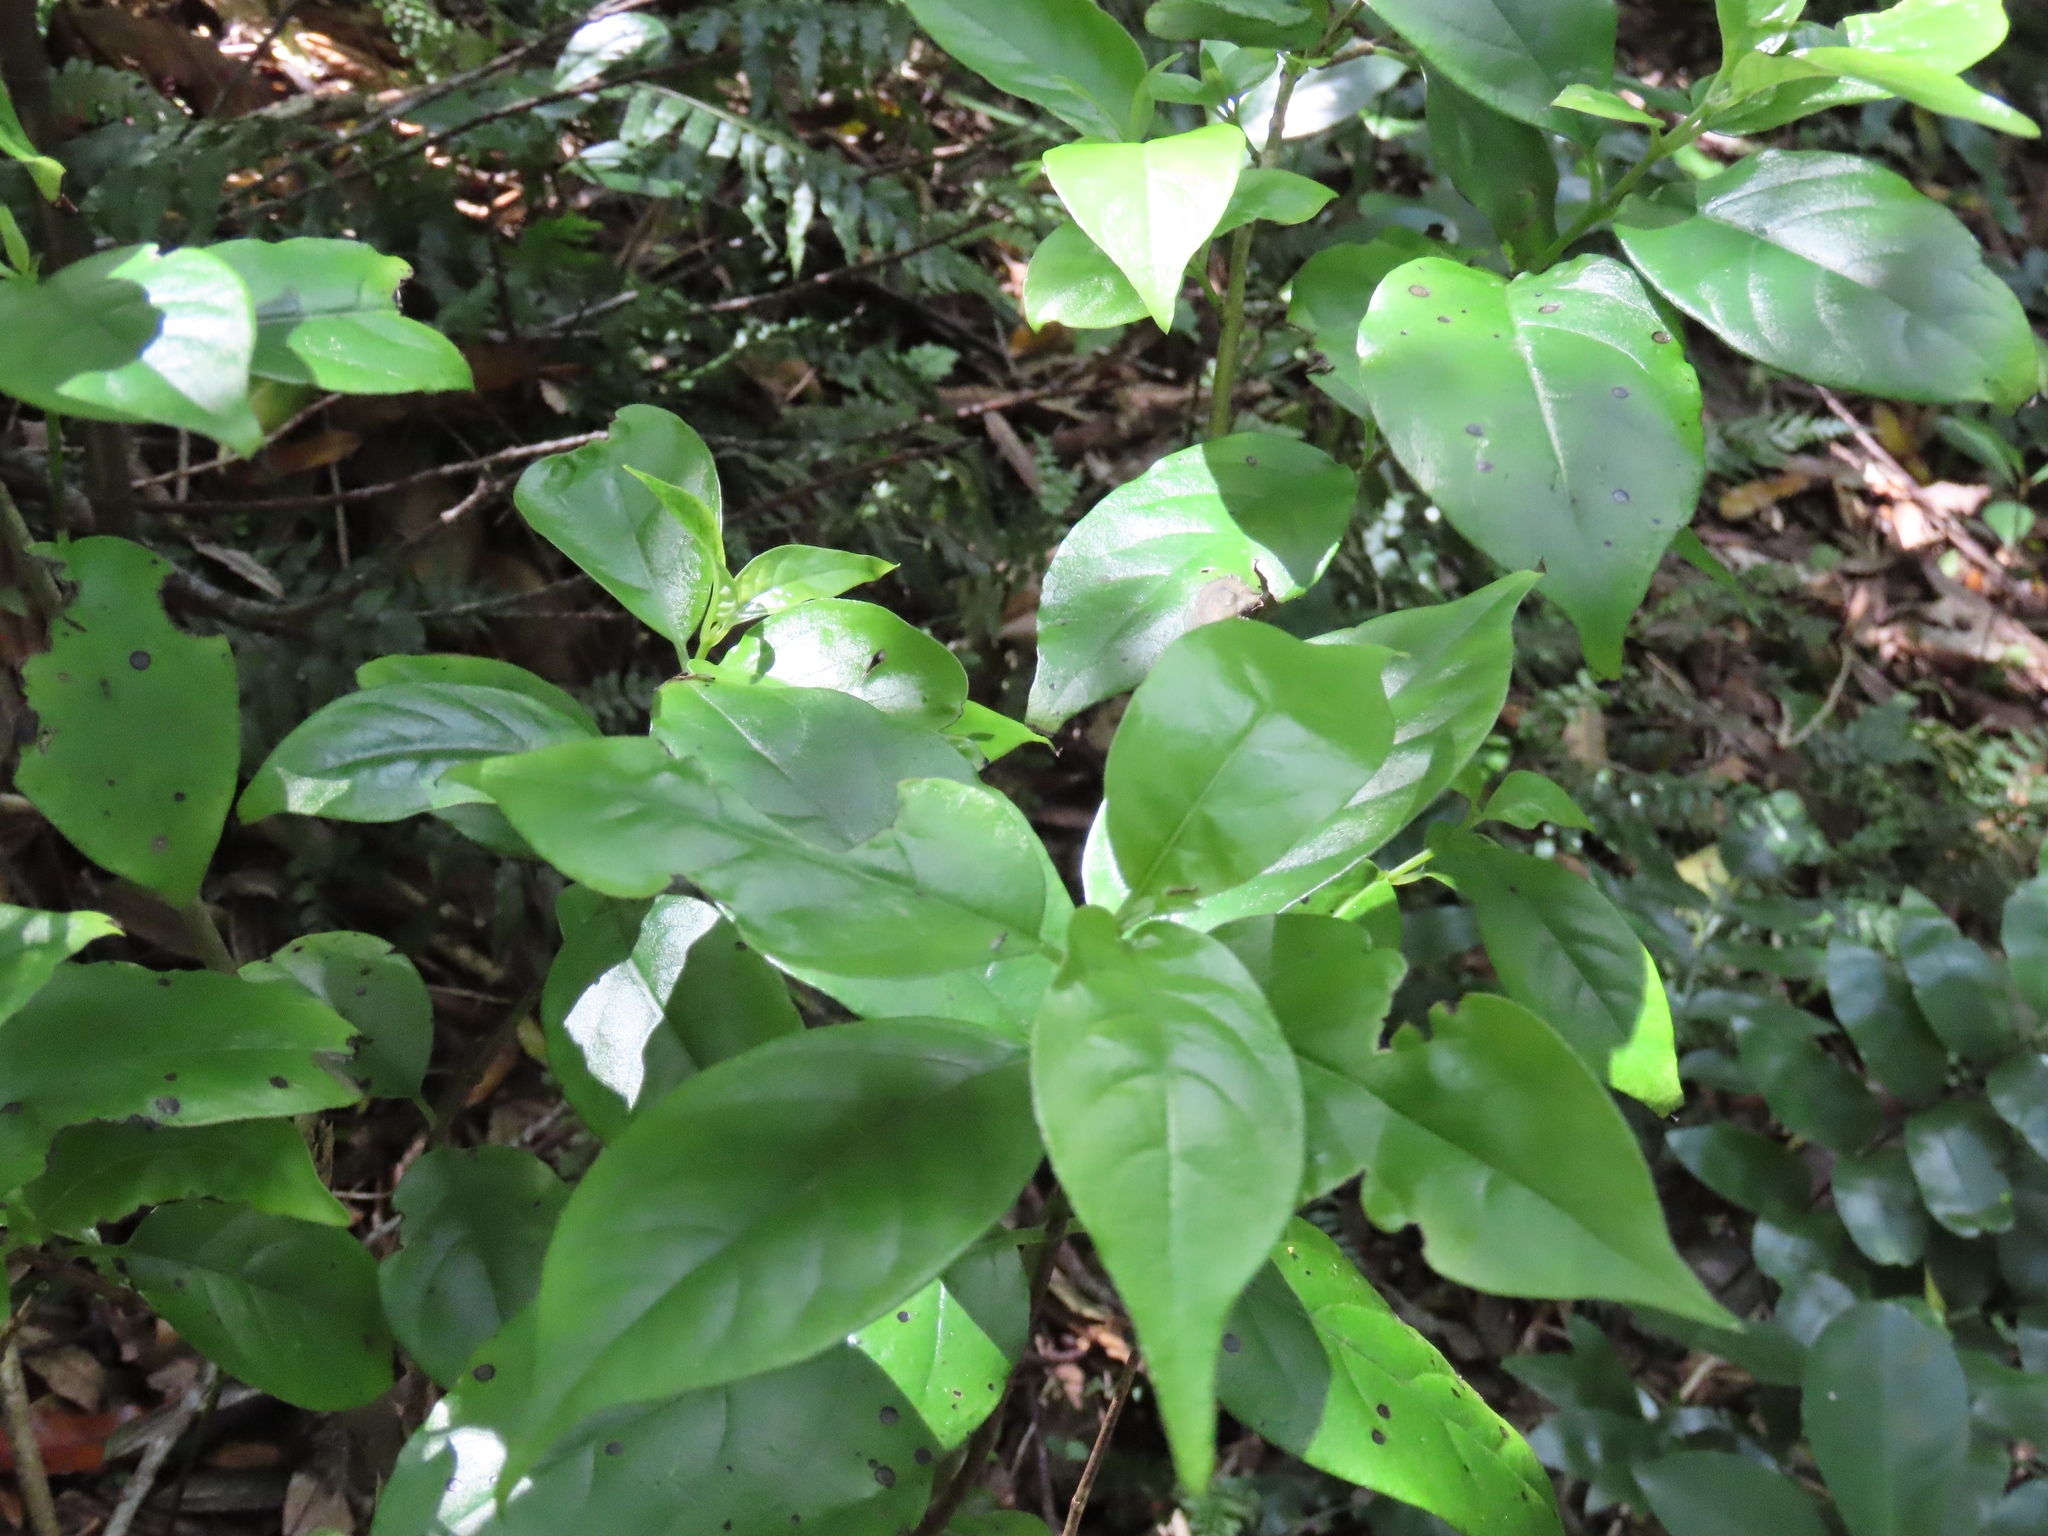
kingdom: Plantae
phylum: Tracheophyta
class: Magnoliopsida
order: Gentianales
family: Loganiaceae
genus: Geniostoma
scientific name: Geniostoma ligustrifolium
